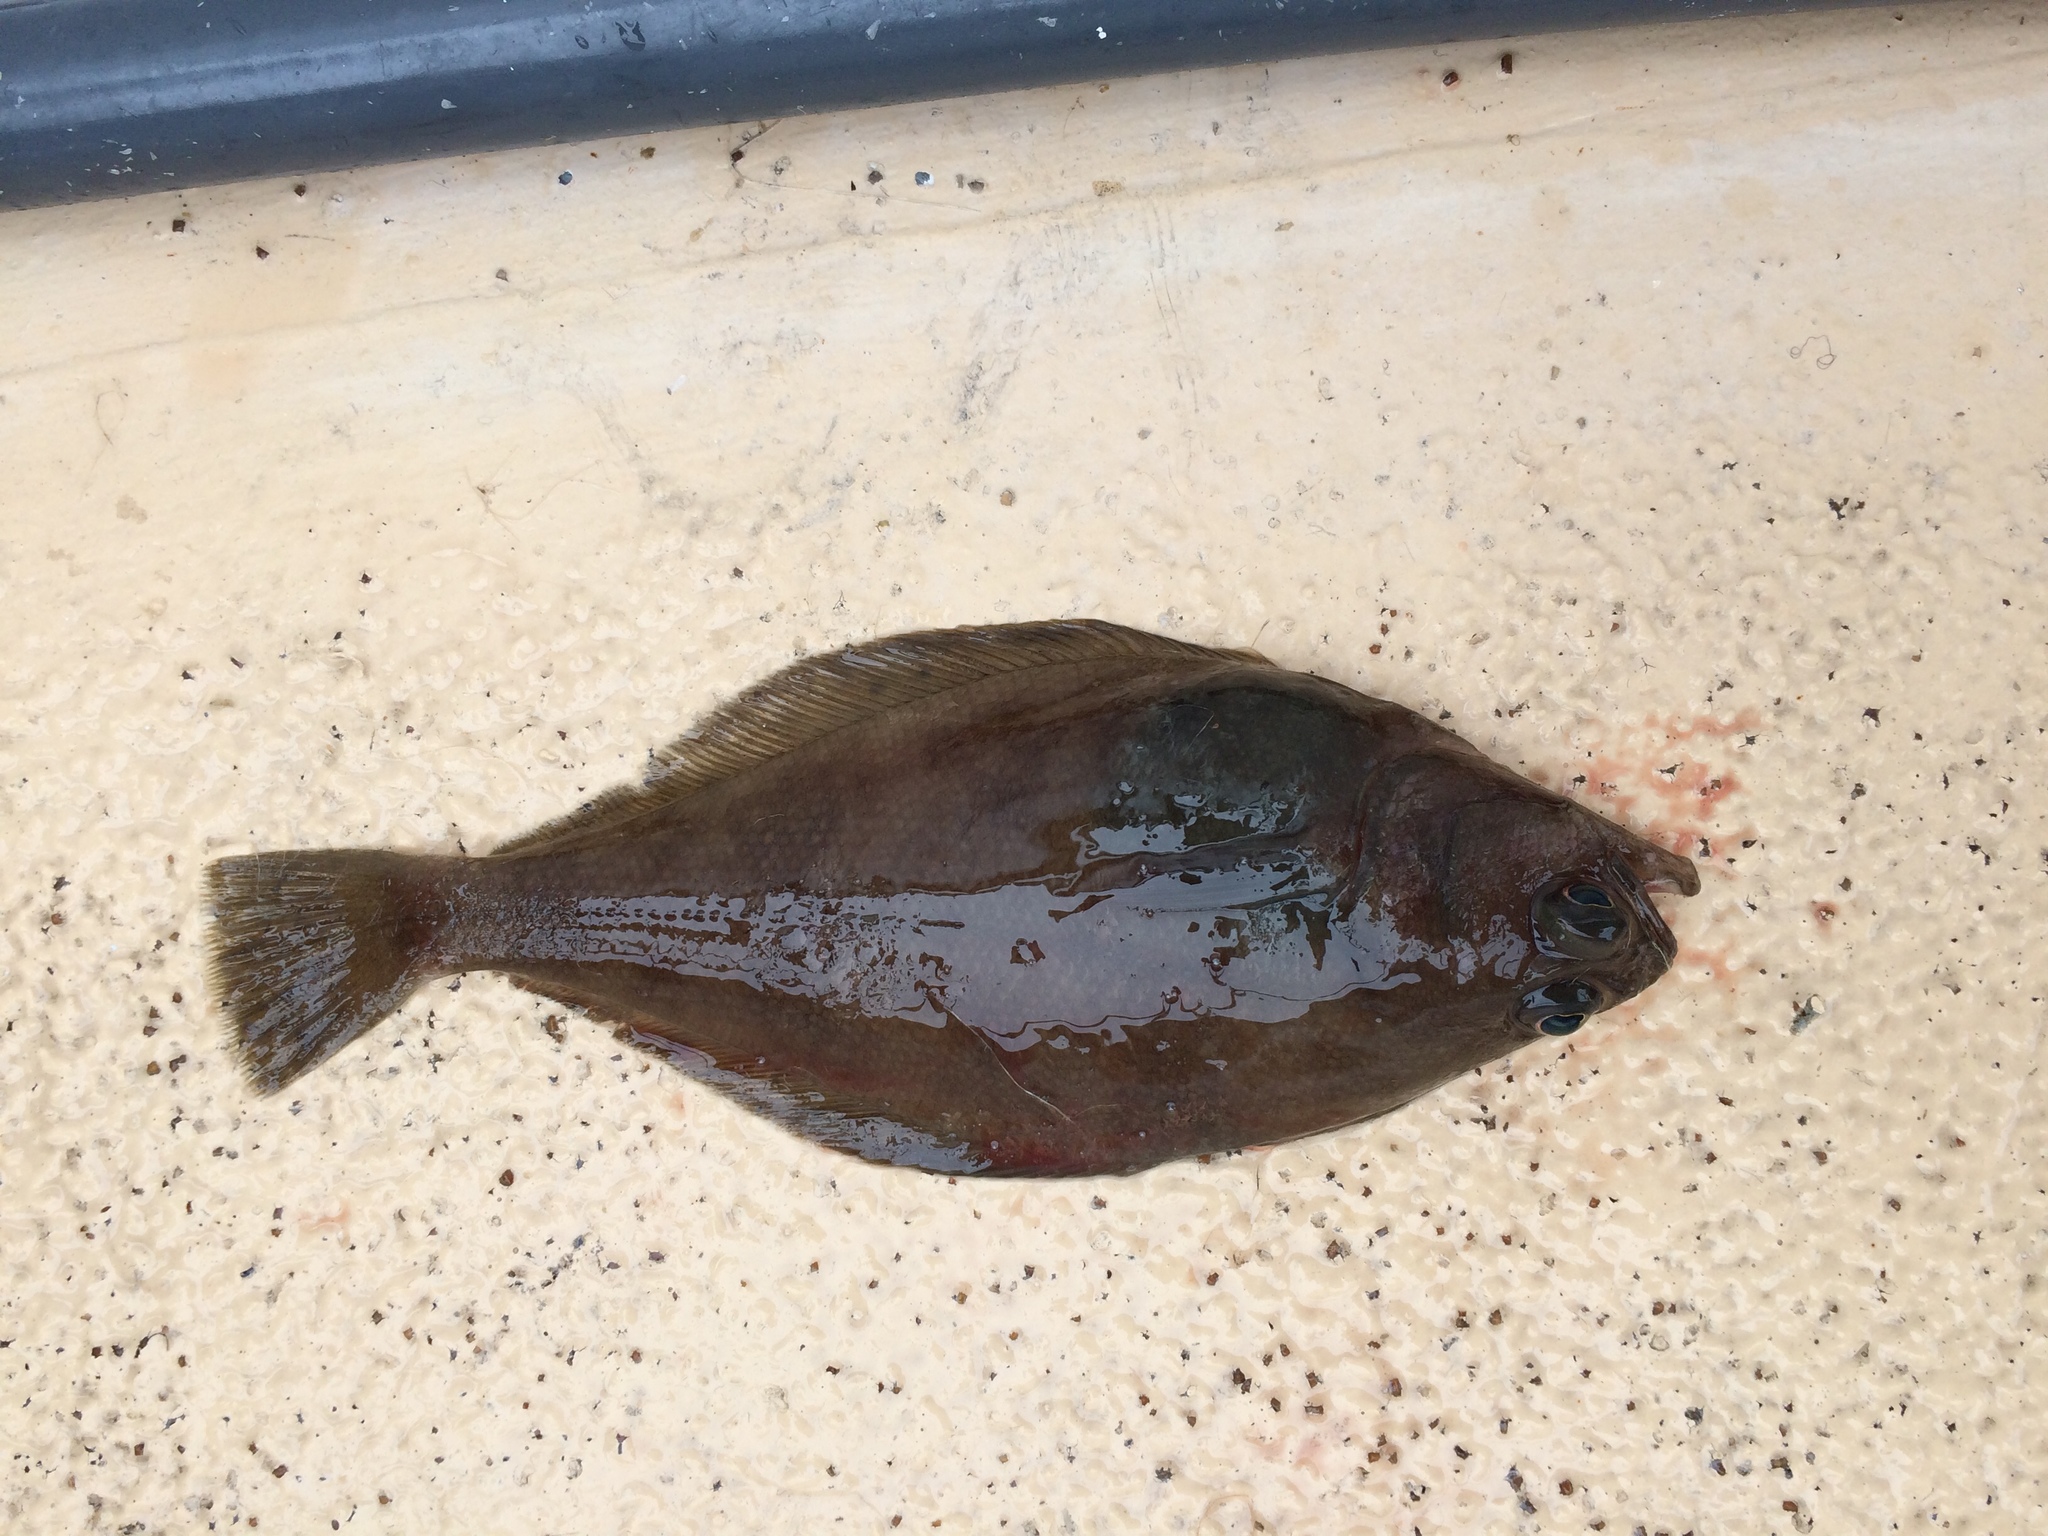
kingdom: Animalia
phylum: Chordata
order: Pleuronectiformes
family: Paralichthyidae
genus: Citharichthys
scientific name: Citharichthys sordidus
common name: Pacific sanddab
